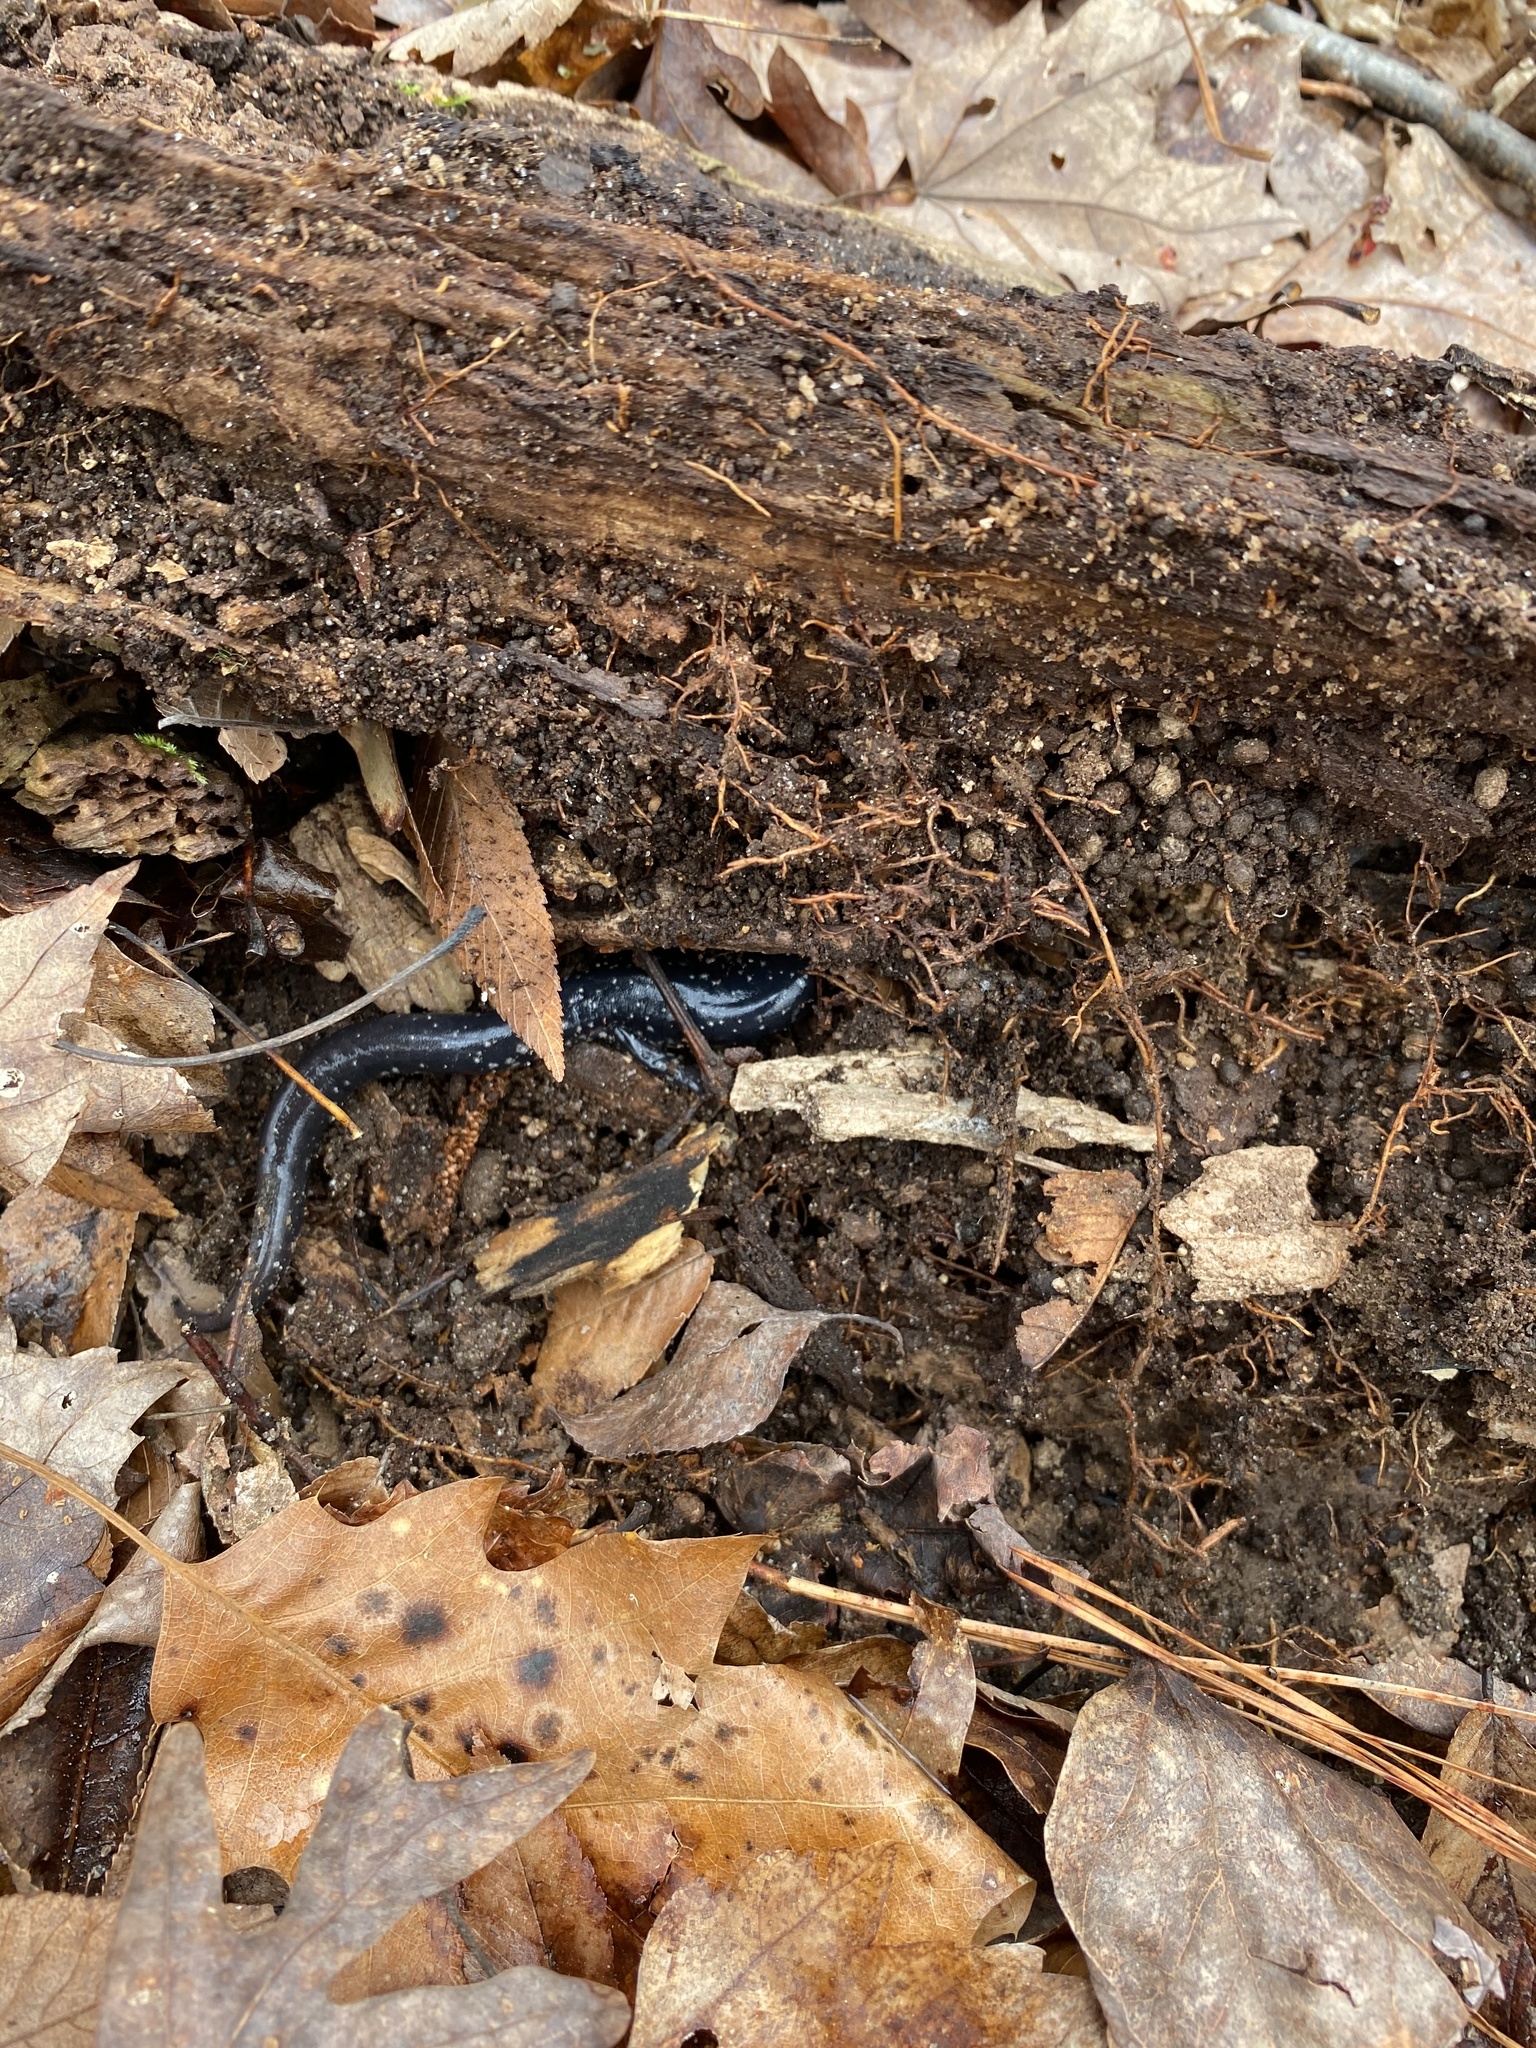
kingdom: Animalia
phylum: Chordata
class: Amphibia
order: Caudata
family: Plethodontidae
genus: Plethodon
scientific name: Plethodon cylindraceus
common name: White-spotted slimy salamander
